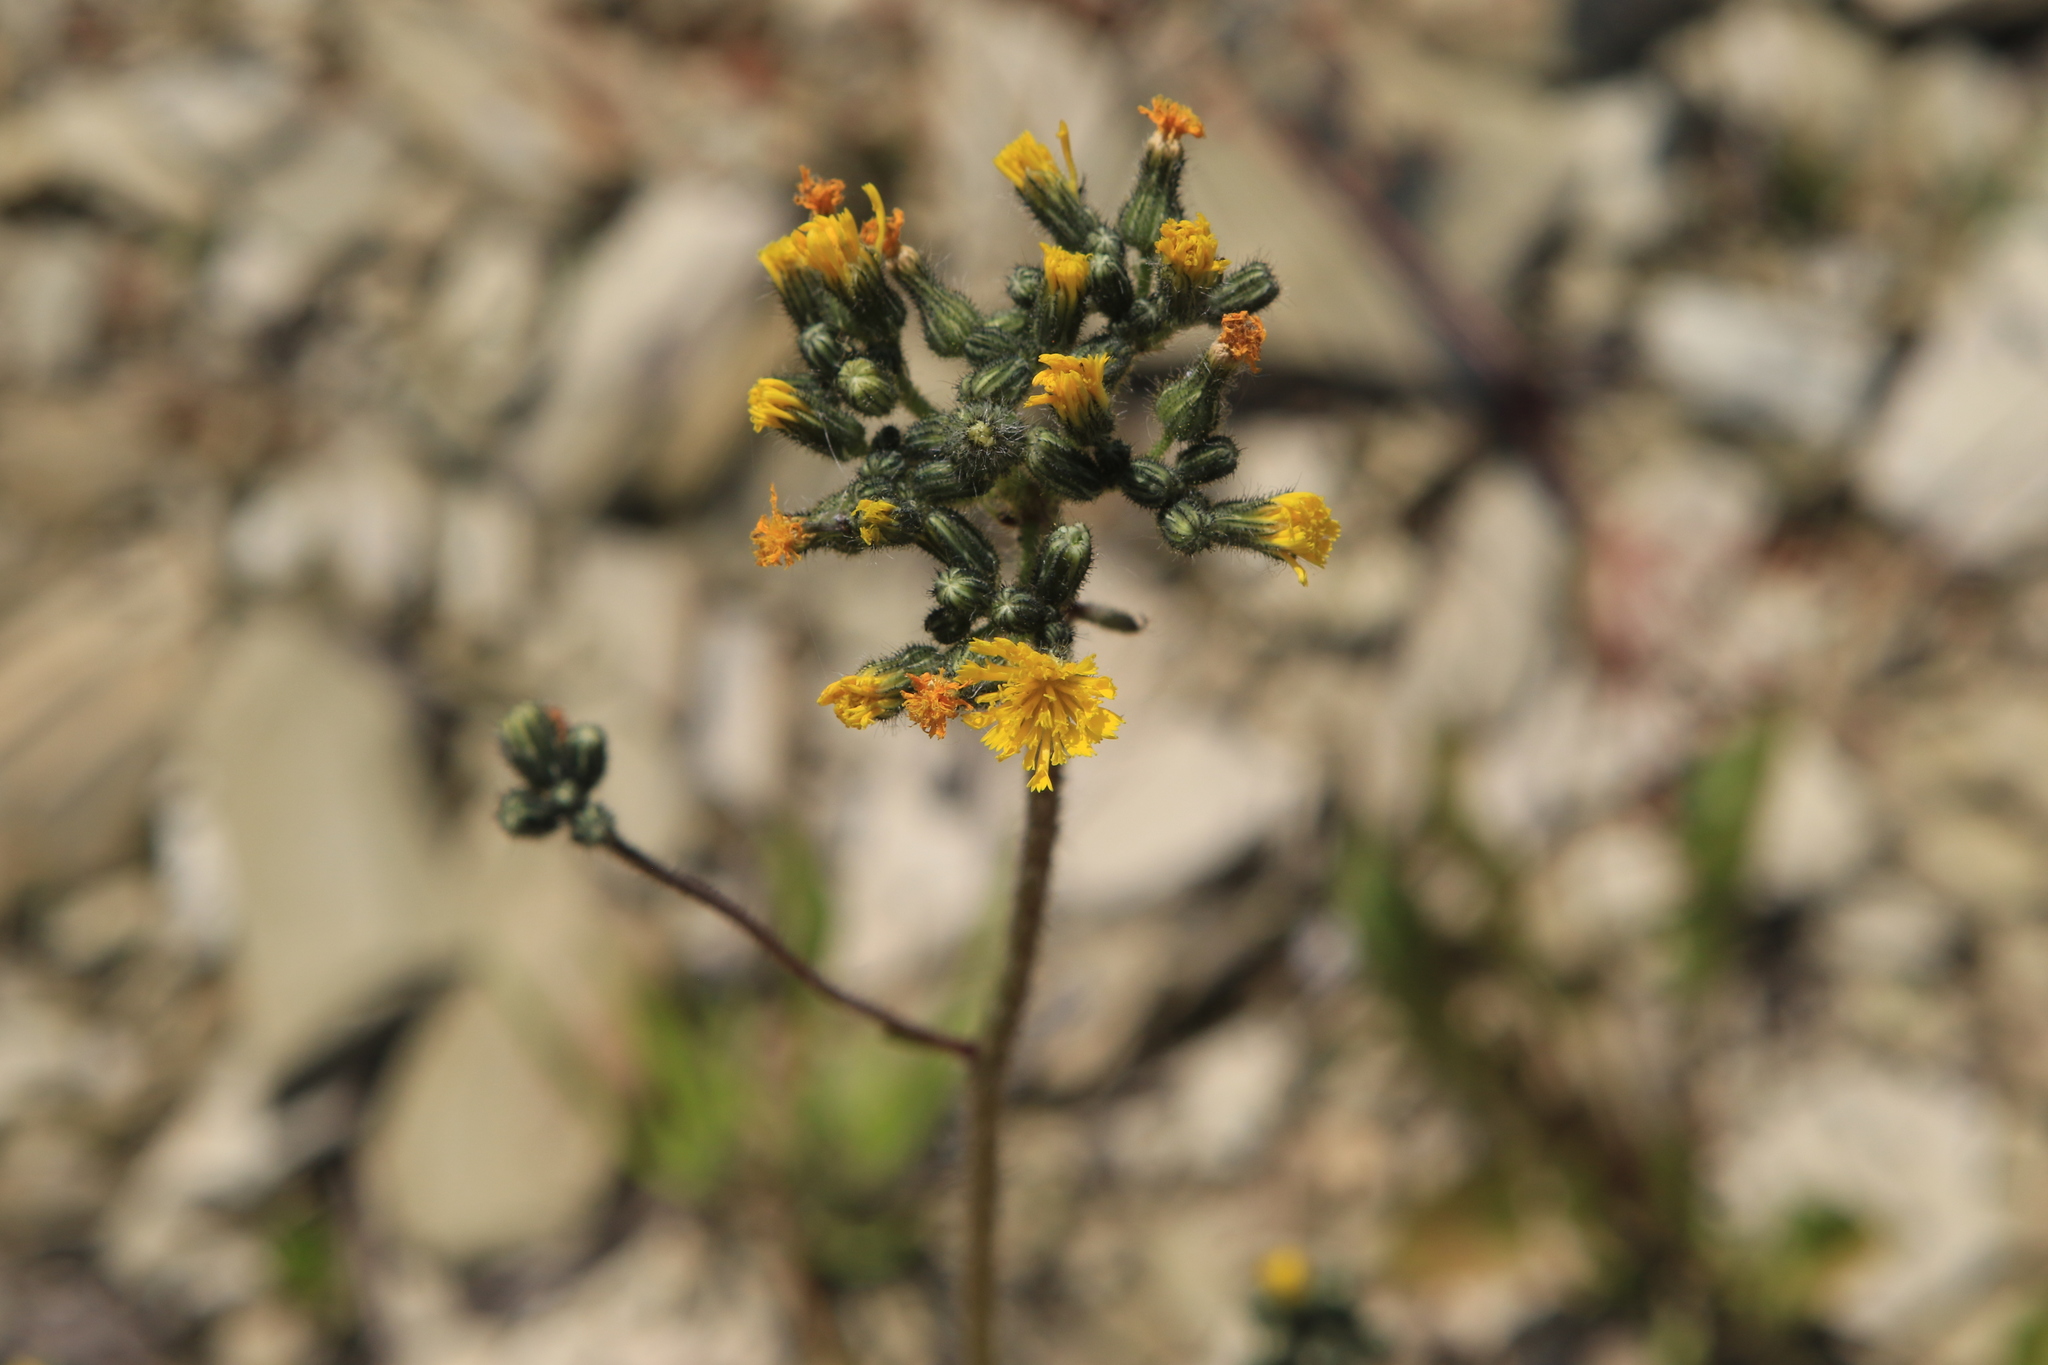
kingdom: Plantae
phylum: Tracheophyta
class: Magnoliopsida
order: Asterales
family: Asteraceae
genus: Pilosella
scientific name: Pilosella
